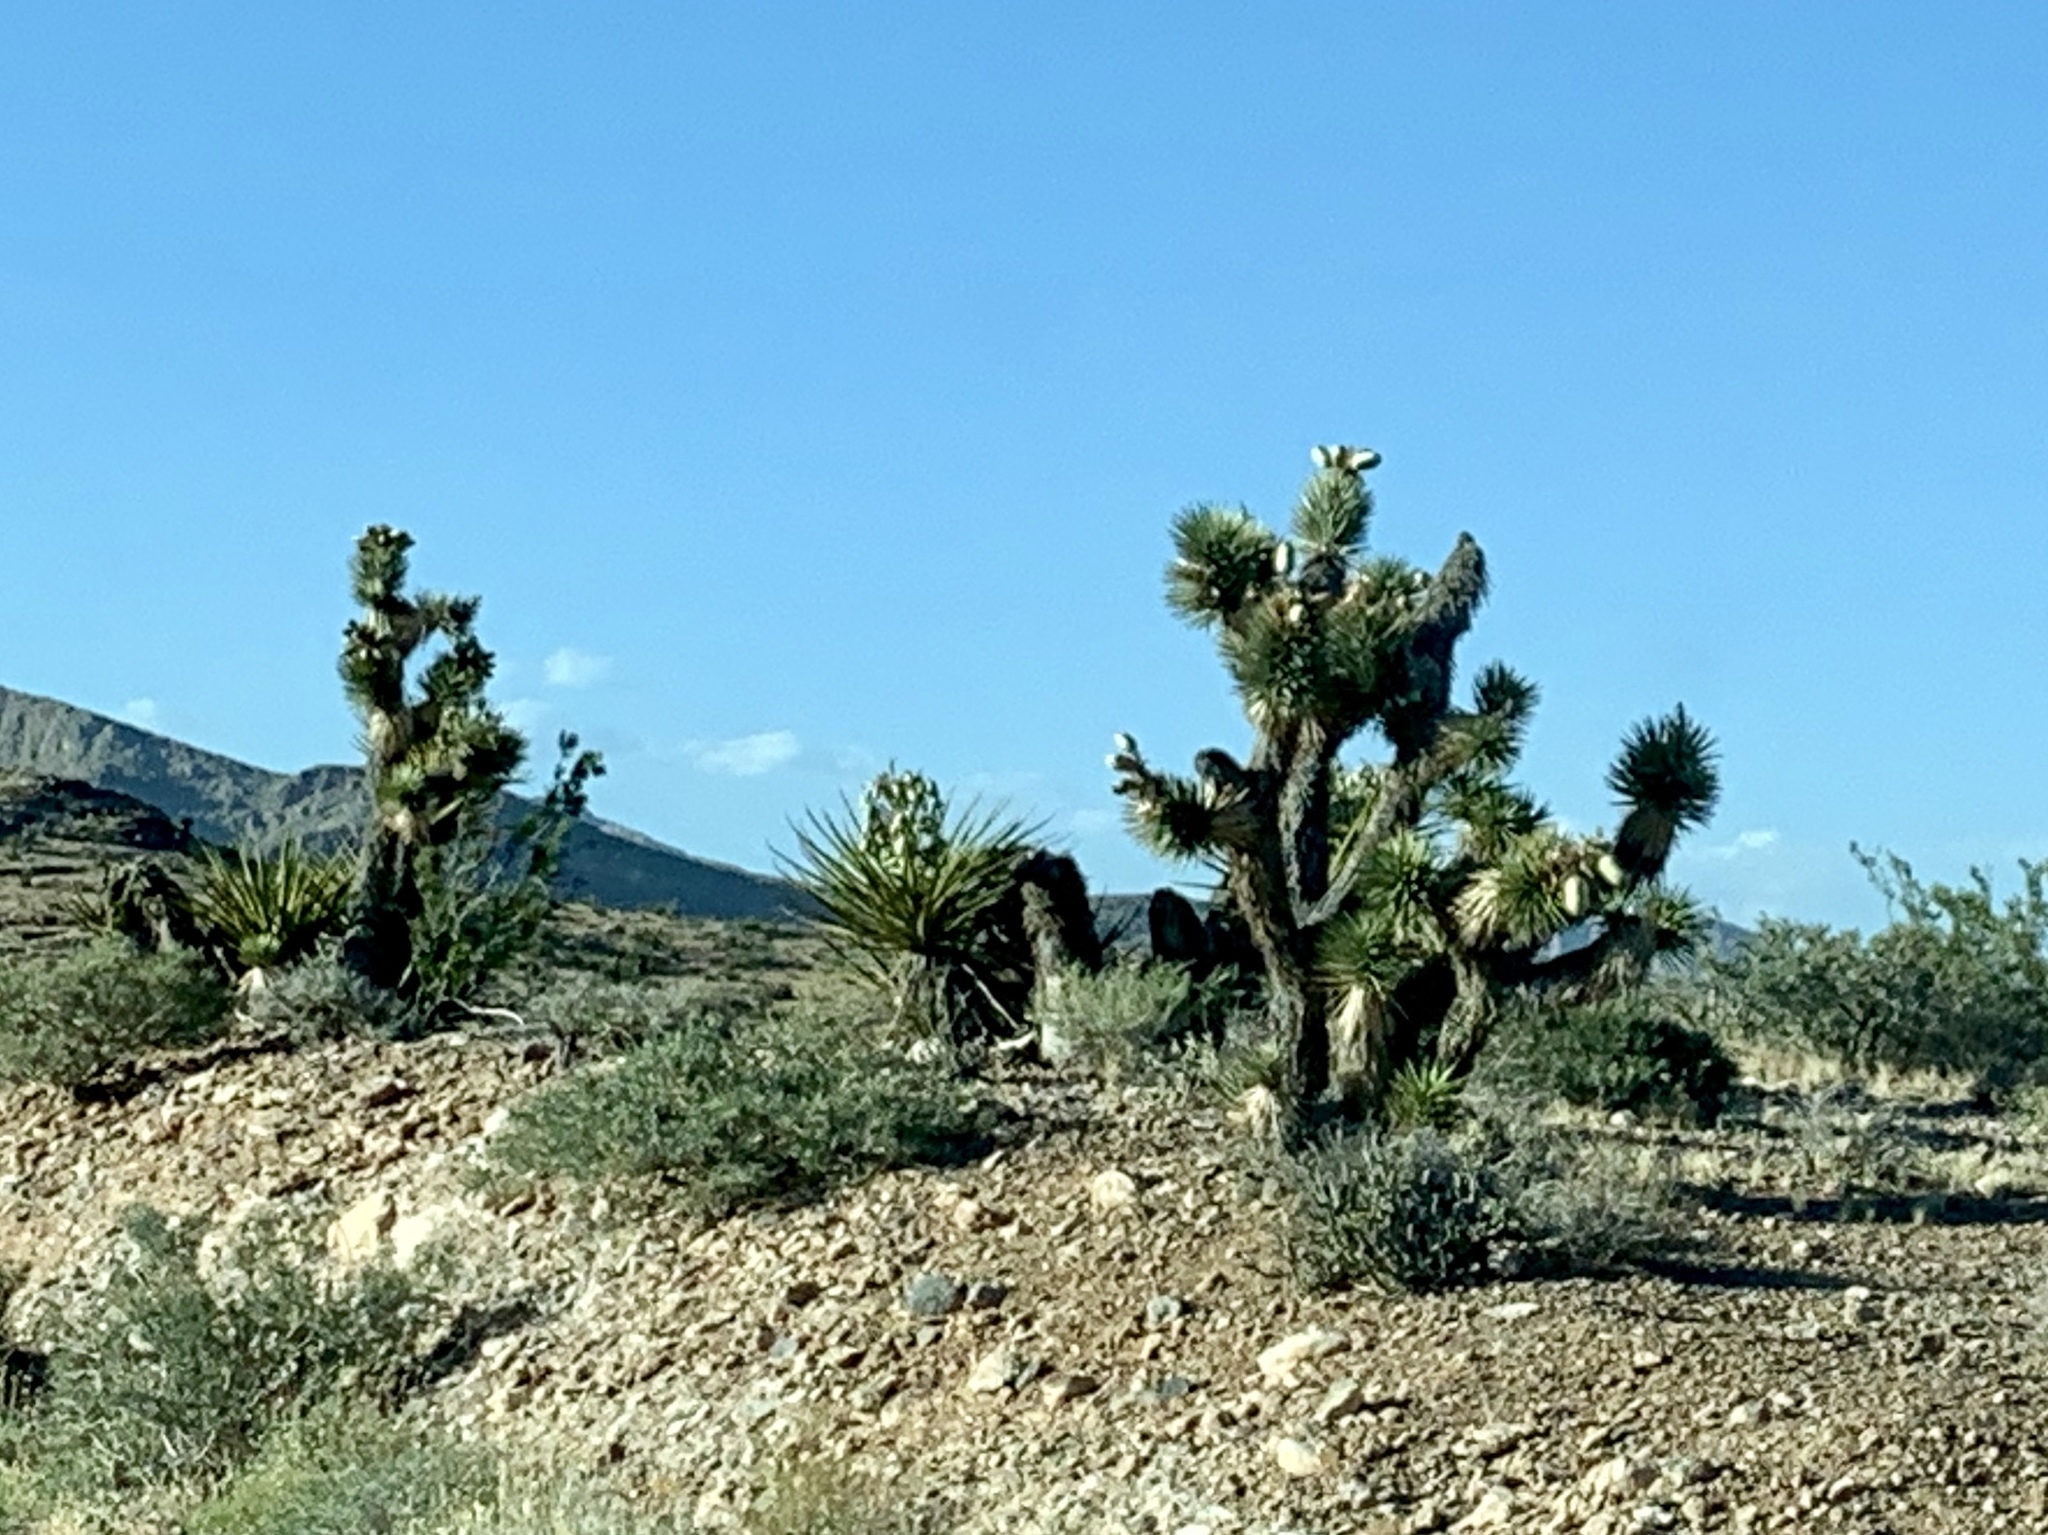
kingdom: Plantae
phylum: Tracheophyta
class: Liliopsida
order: Asparagales
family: Asparagaceae
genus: Yucca
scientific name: Yucca brevifolia
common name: Joshua tree
